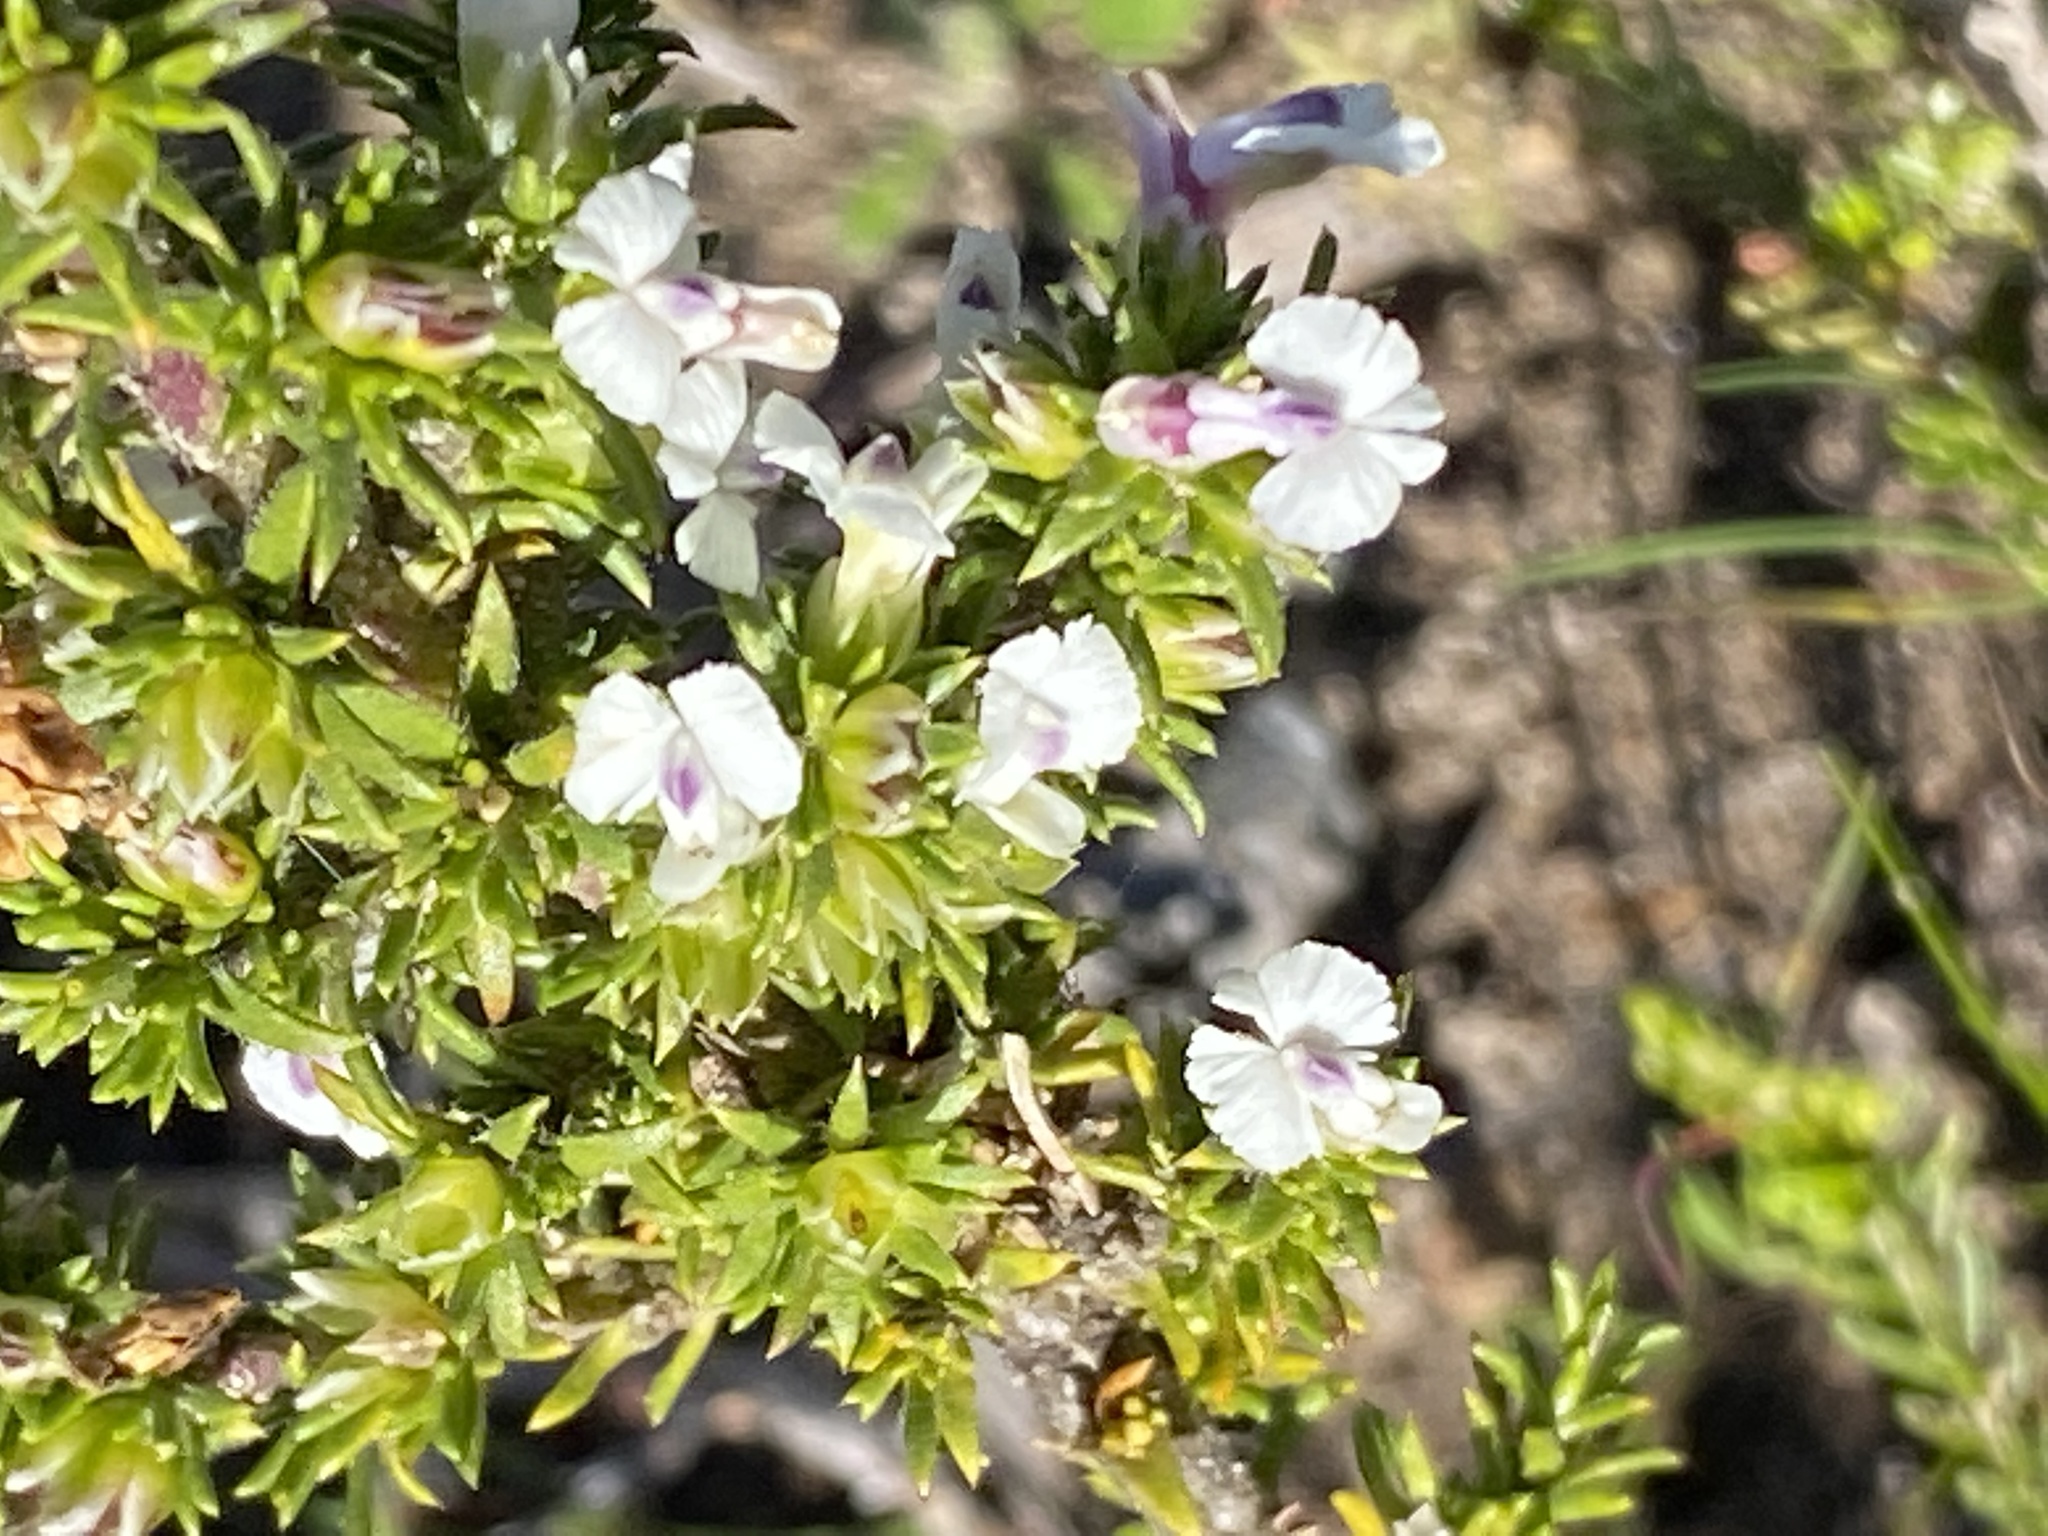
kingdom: Plantae
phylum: Tracheophyta
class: Magnoliopsida
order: Fabales
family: Polygalaceae
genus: Muraltia
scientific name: Muraltia pappeana
